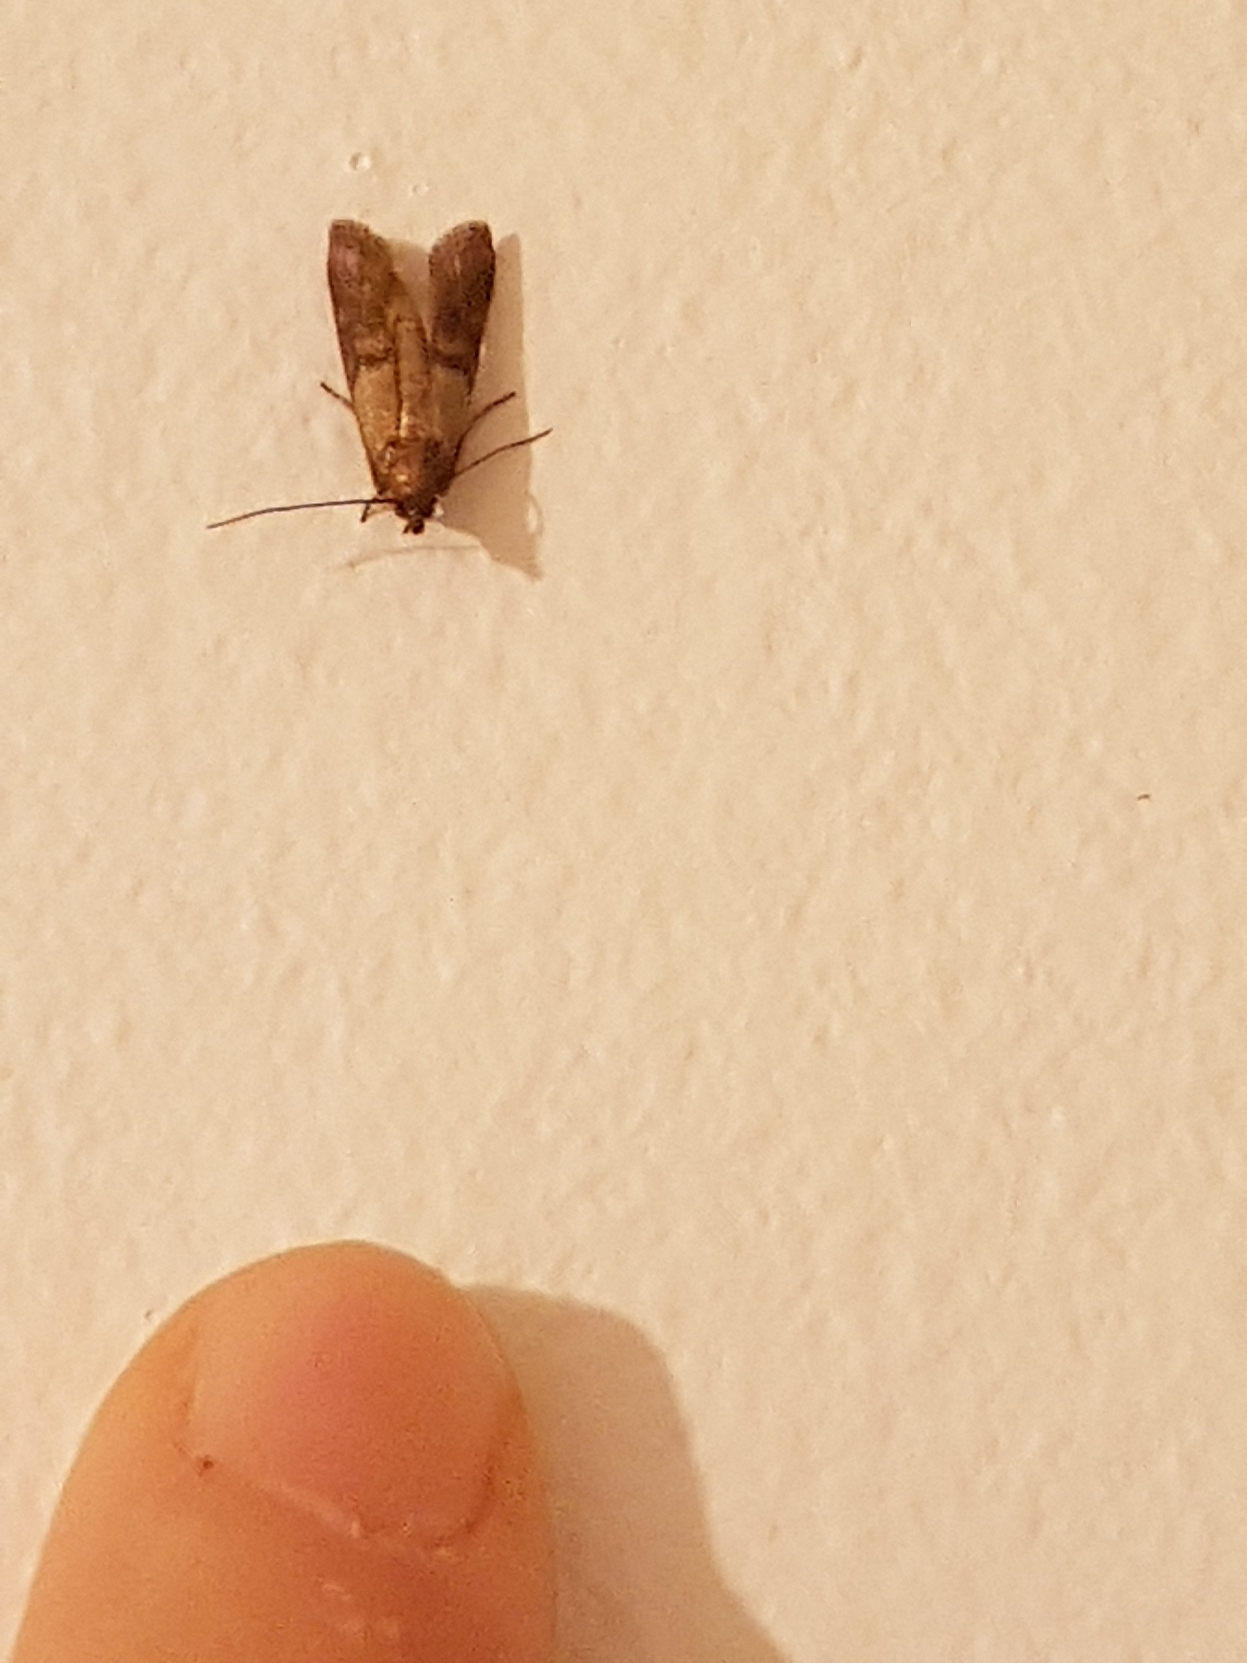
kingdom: Animalia
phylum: Arthropoda
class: Insecta
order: Lepidoptera
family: Pyralidae
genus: Plodia
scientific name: Plodia interpunctella
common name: Indian meal moth
